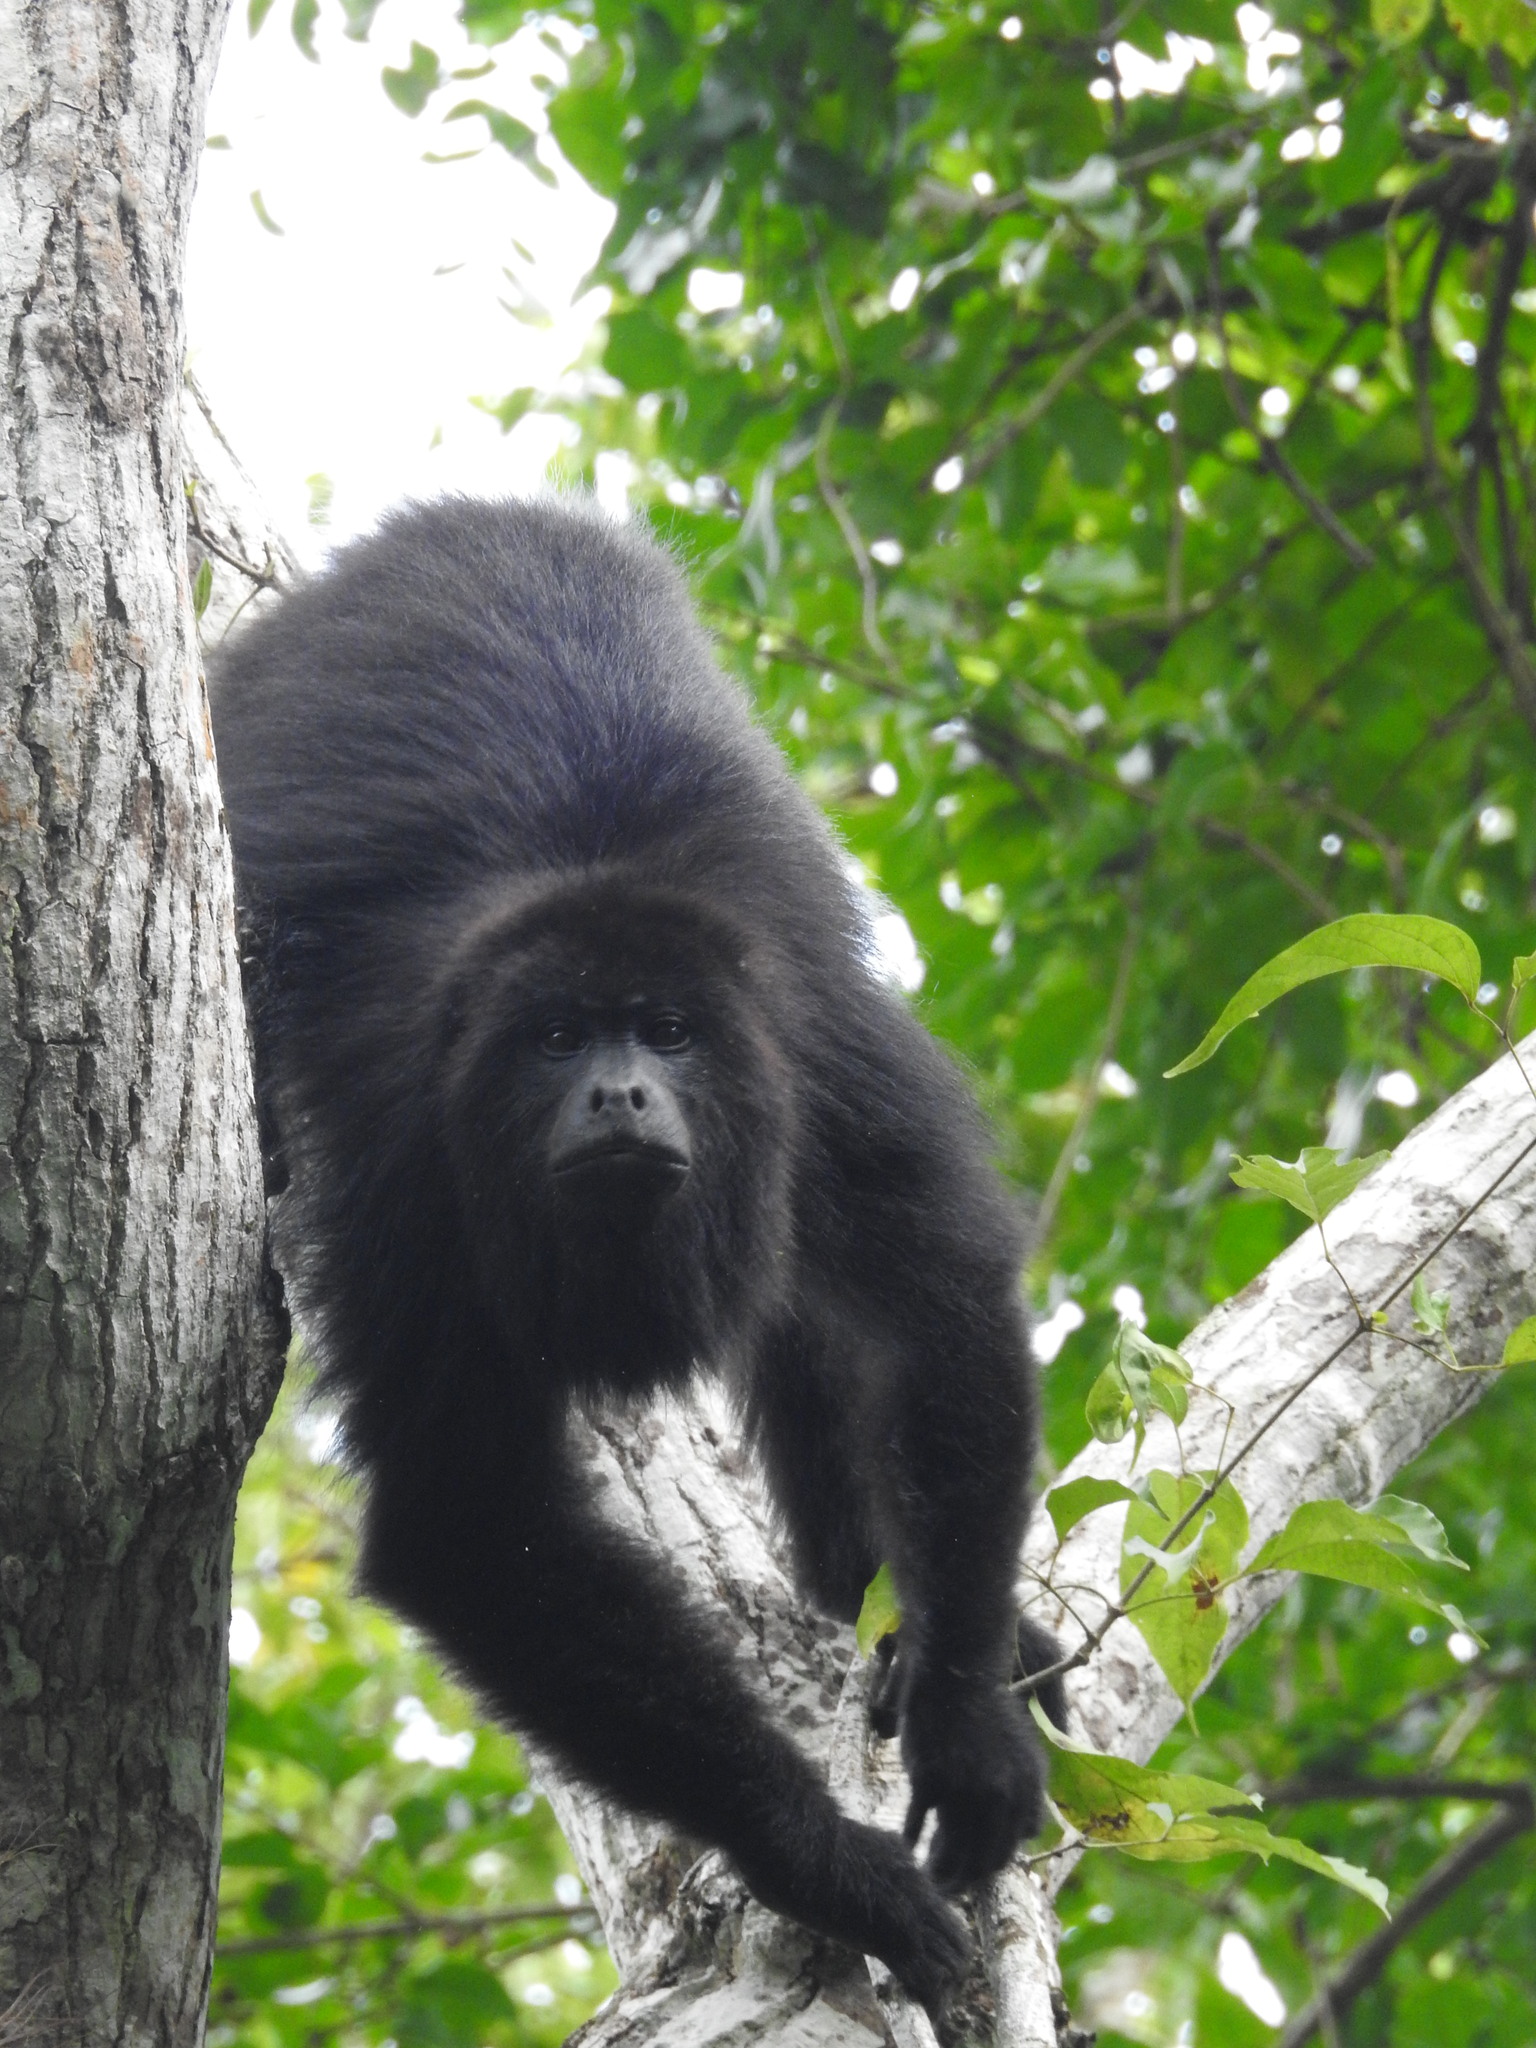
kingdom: Animalia
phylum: Chordata
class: Mammalia
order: Primates
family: Atelidae
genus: Alouatta
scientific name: Alouatta pigra
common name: Guatemalan black howler
